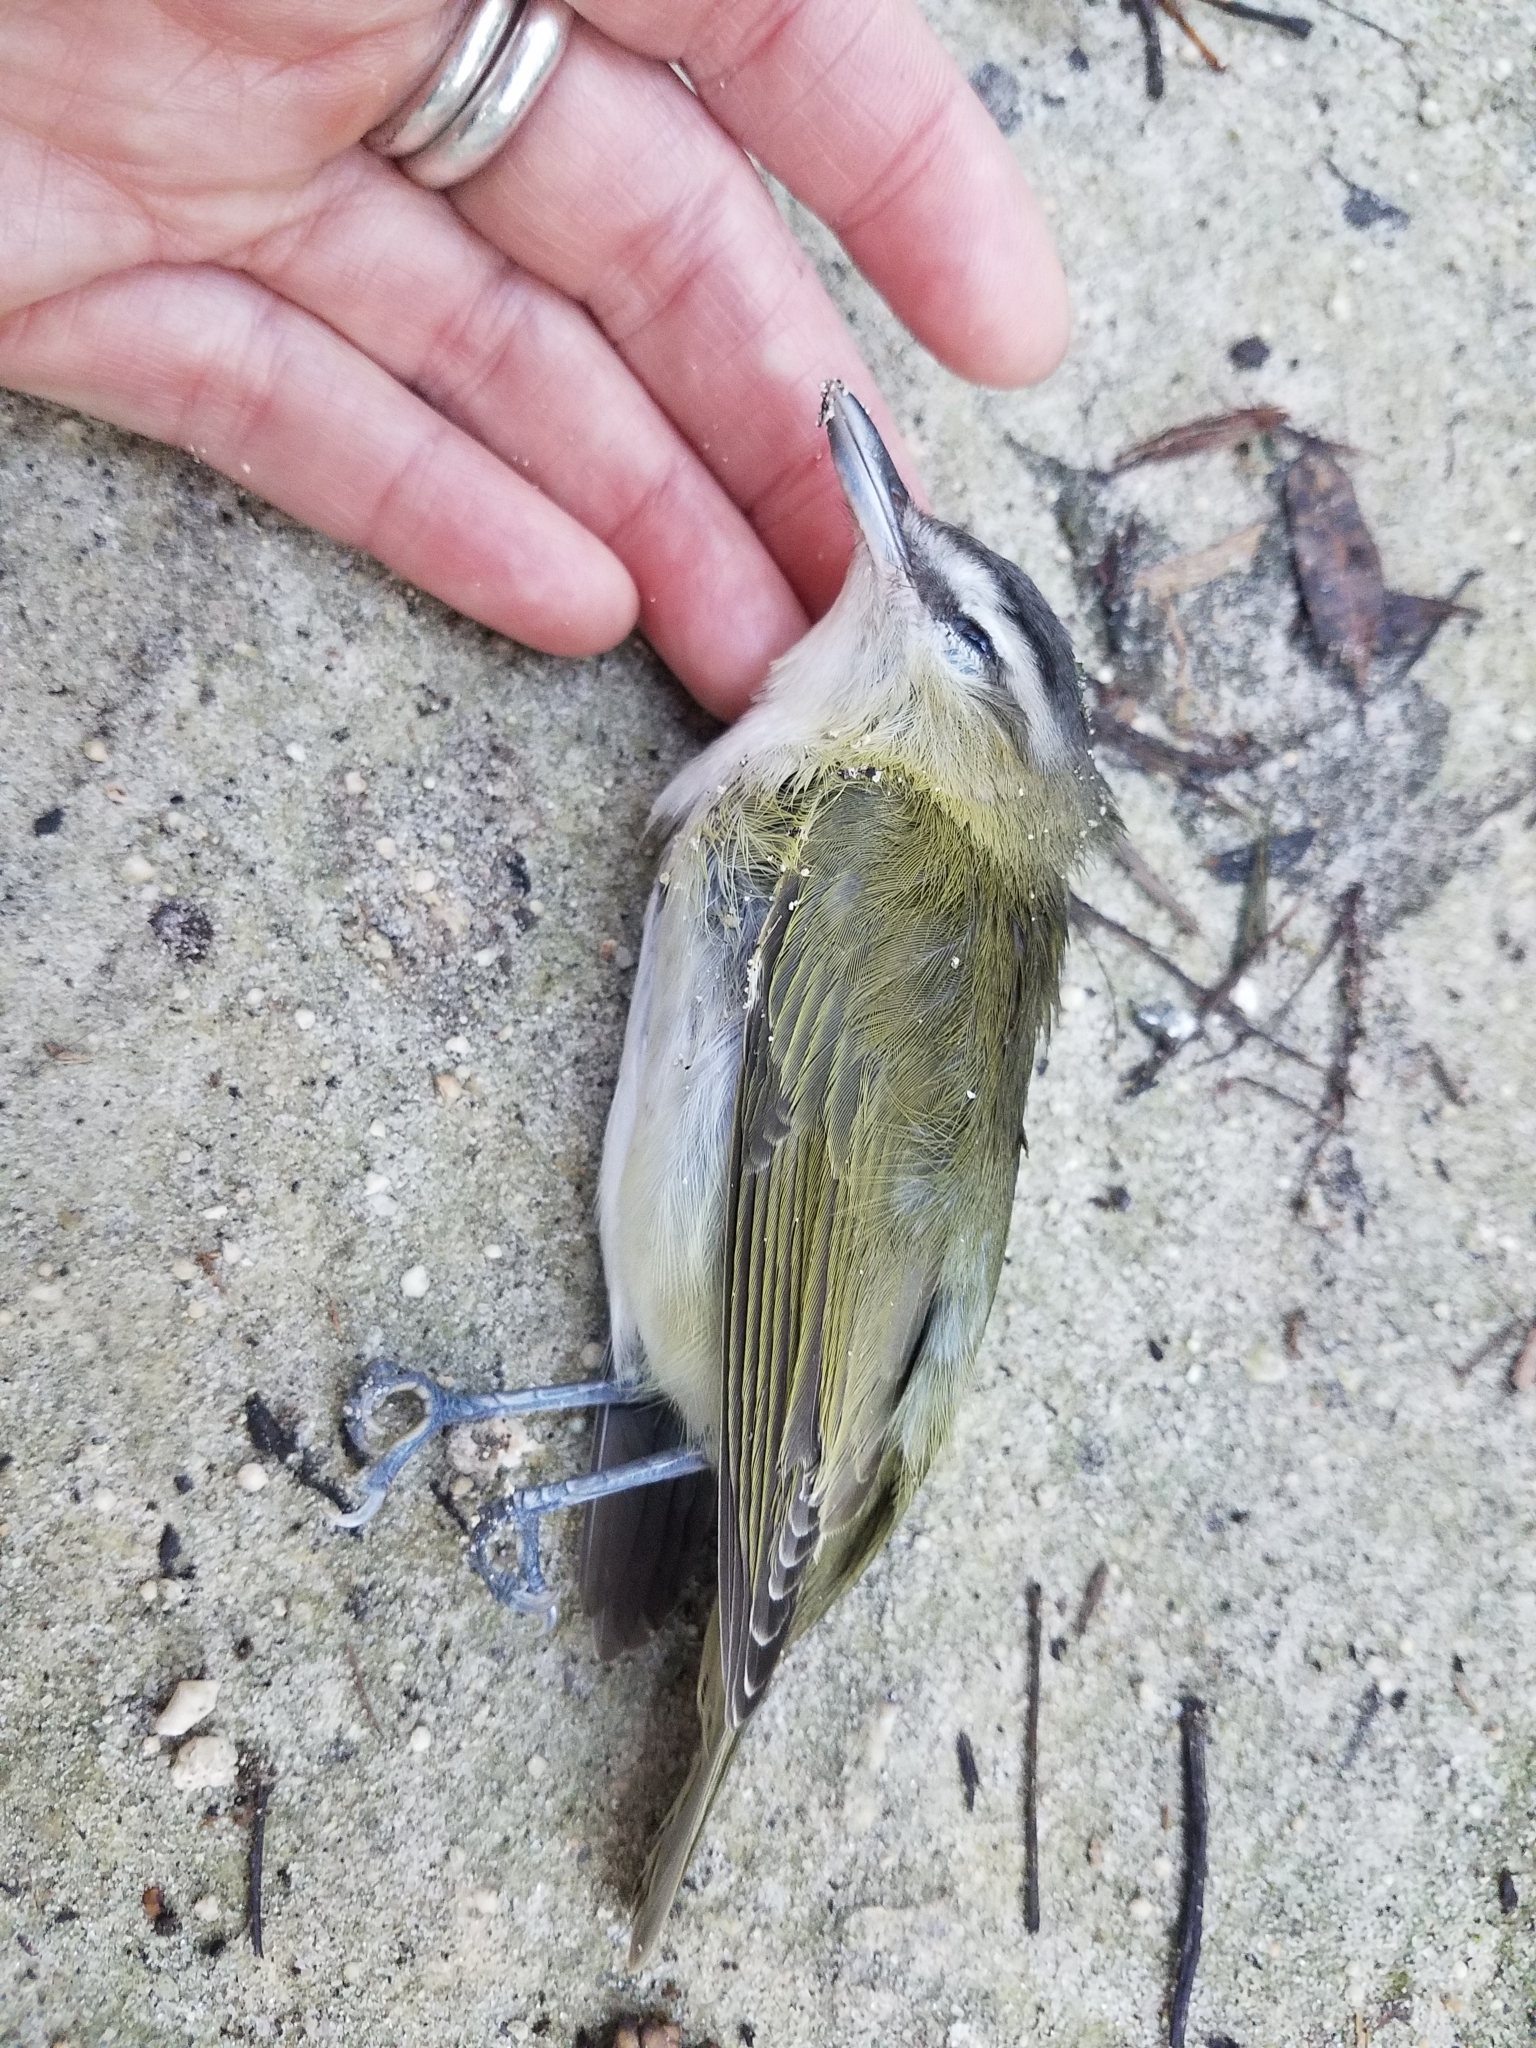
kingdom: Animalia
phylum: Chordata
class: Aves
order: Passeriformes
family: Vireonidae
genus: Vireo
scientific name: Vireo olivaceus
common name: Red-eyed vireo
